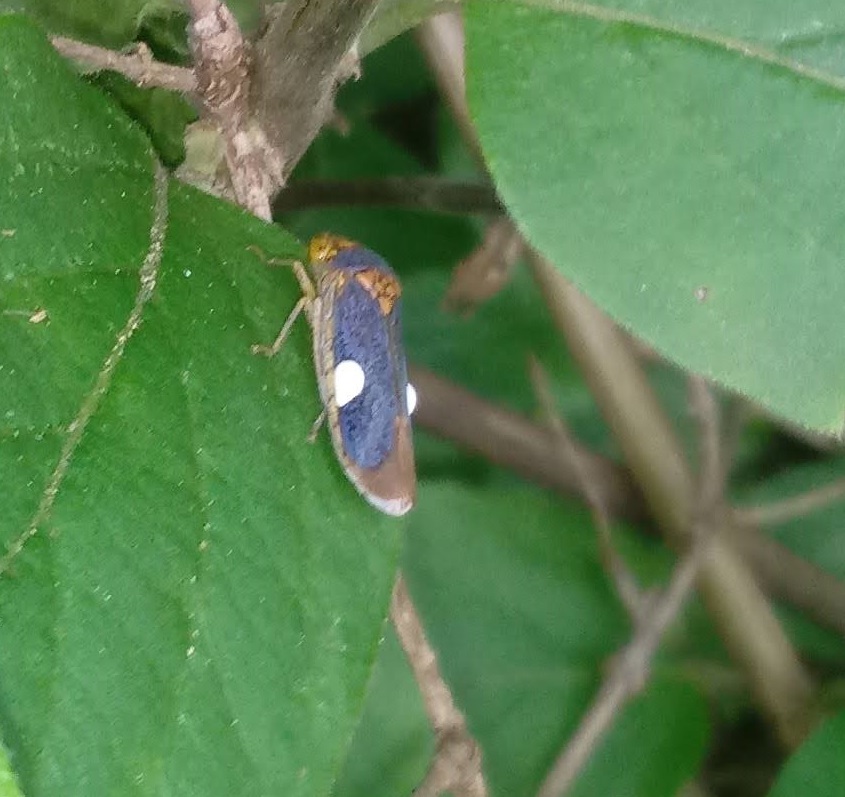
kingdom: Animalia
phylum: Arthropoda
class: Insecta
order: Hemiptera
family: Cicadellidae
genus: Oncometopia
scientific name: Oncometopia orbona
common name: Broad-headed sharpshooter
